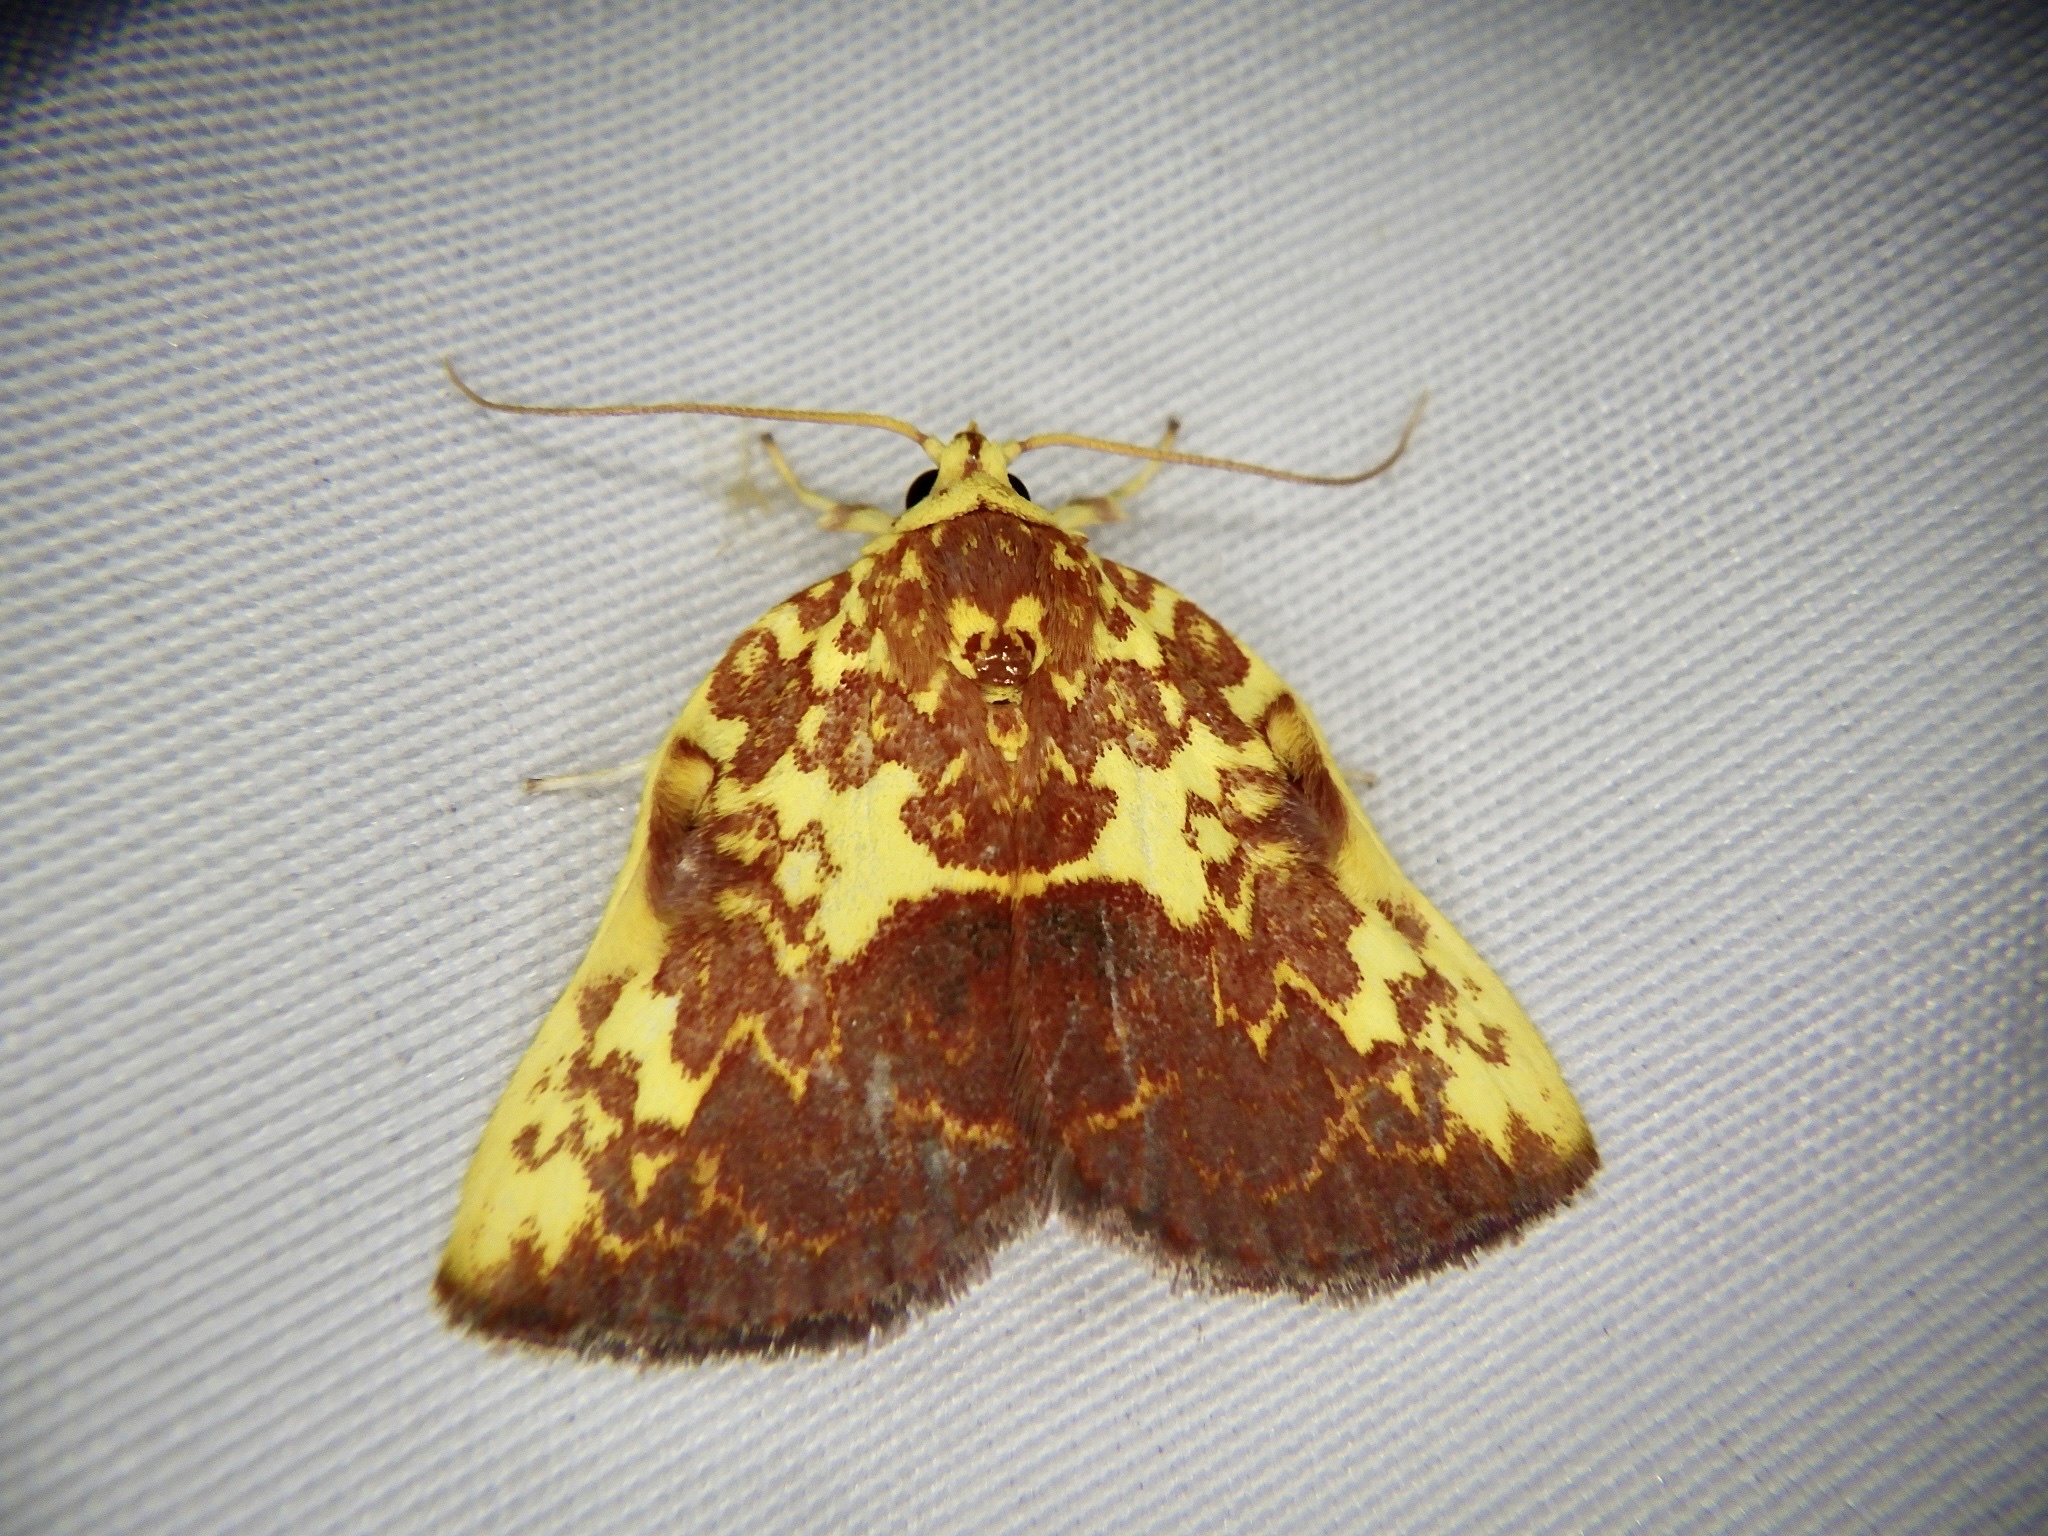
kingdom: Animalia
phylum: Arthropoda
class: Insecta
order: Lepidoptera
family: Nolidae
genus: Siglophora
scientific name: Siglophora ferreilutea
